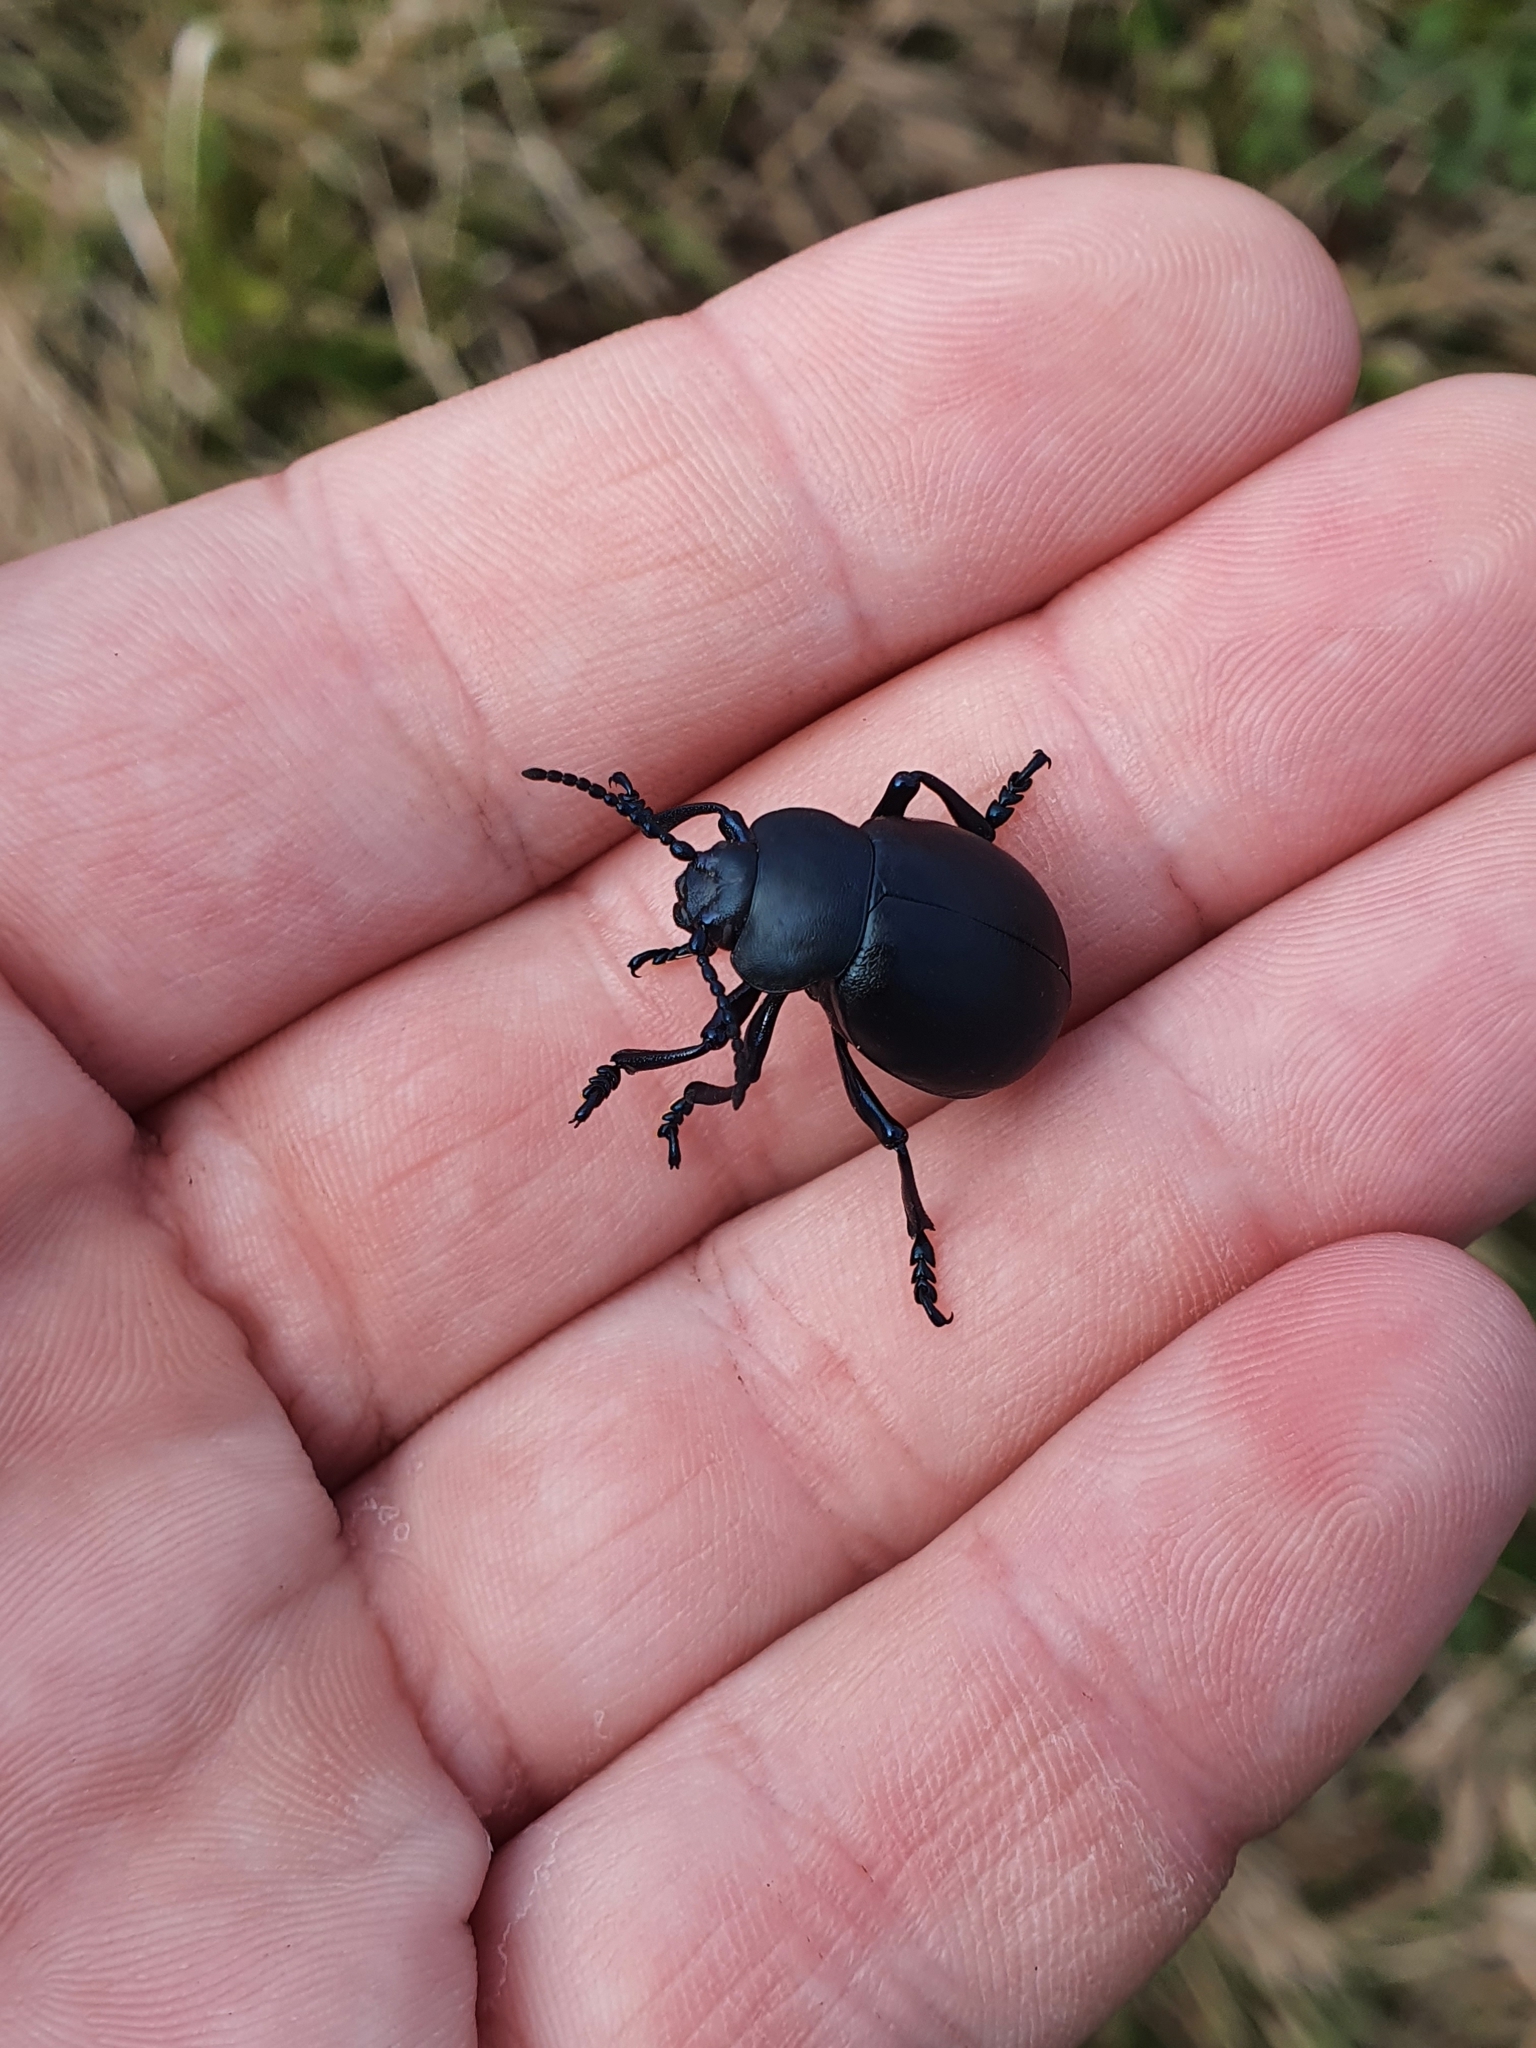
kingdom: Animalia
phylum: Arthropoda
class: Insecta
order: Coleoptera
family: Chrysomelidae
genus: Timarcha
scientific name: Timarcha tenebricosa
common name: Bloody-nosed beetle
